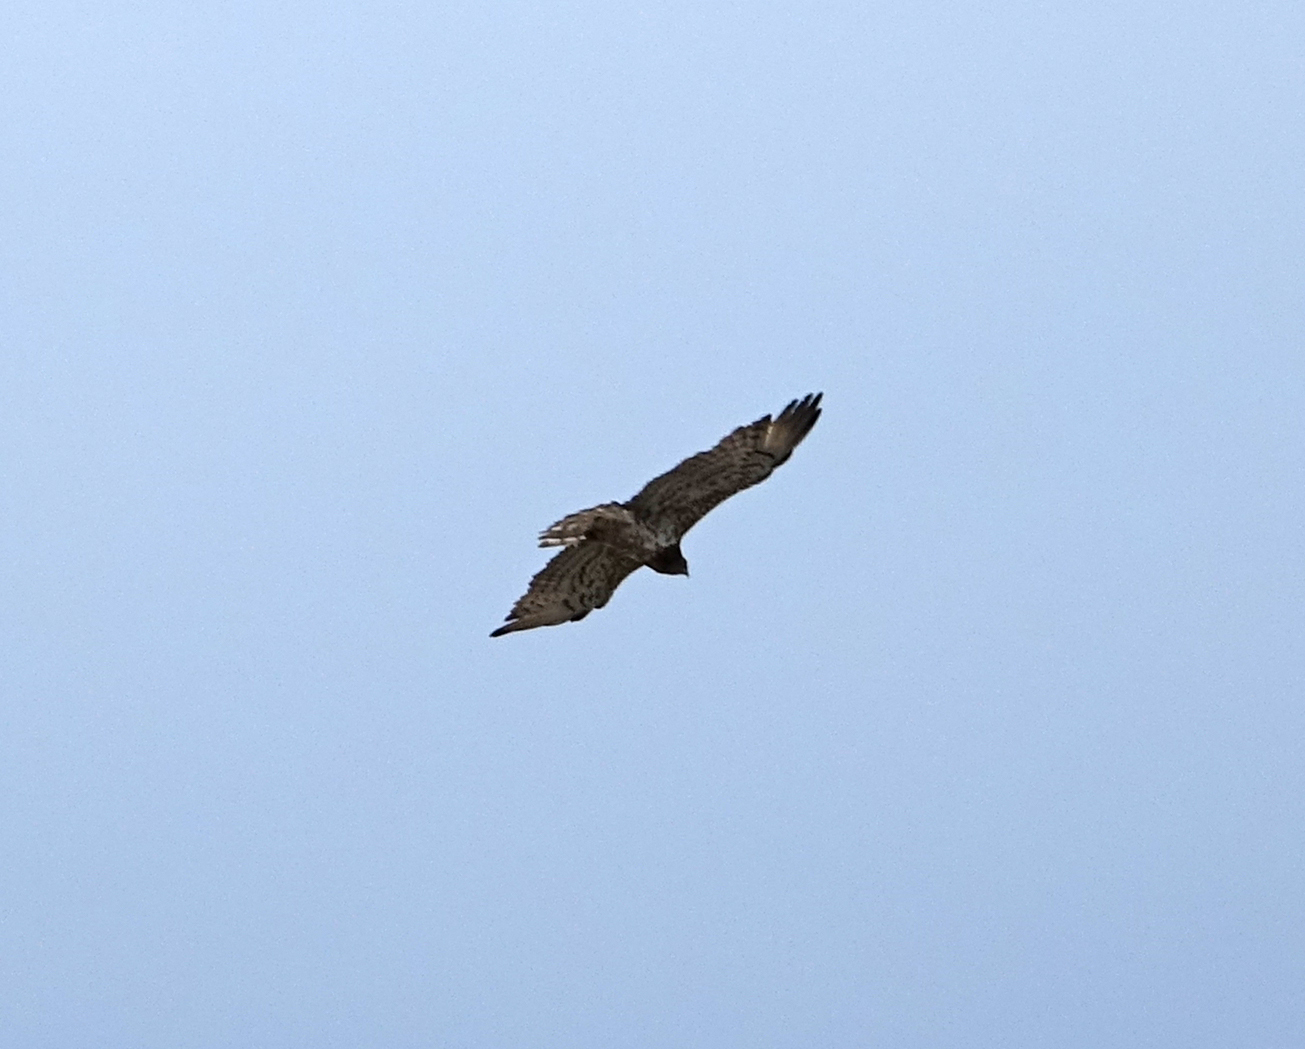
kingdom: Animalia
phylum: Chordata
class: Aves
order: Accipitriformes
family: Accipitridae
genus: Circaetus
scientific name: Circaetus gallicus
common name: Short-toed snake eagle
